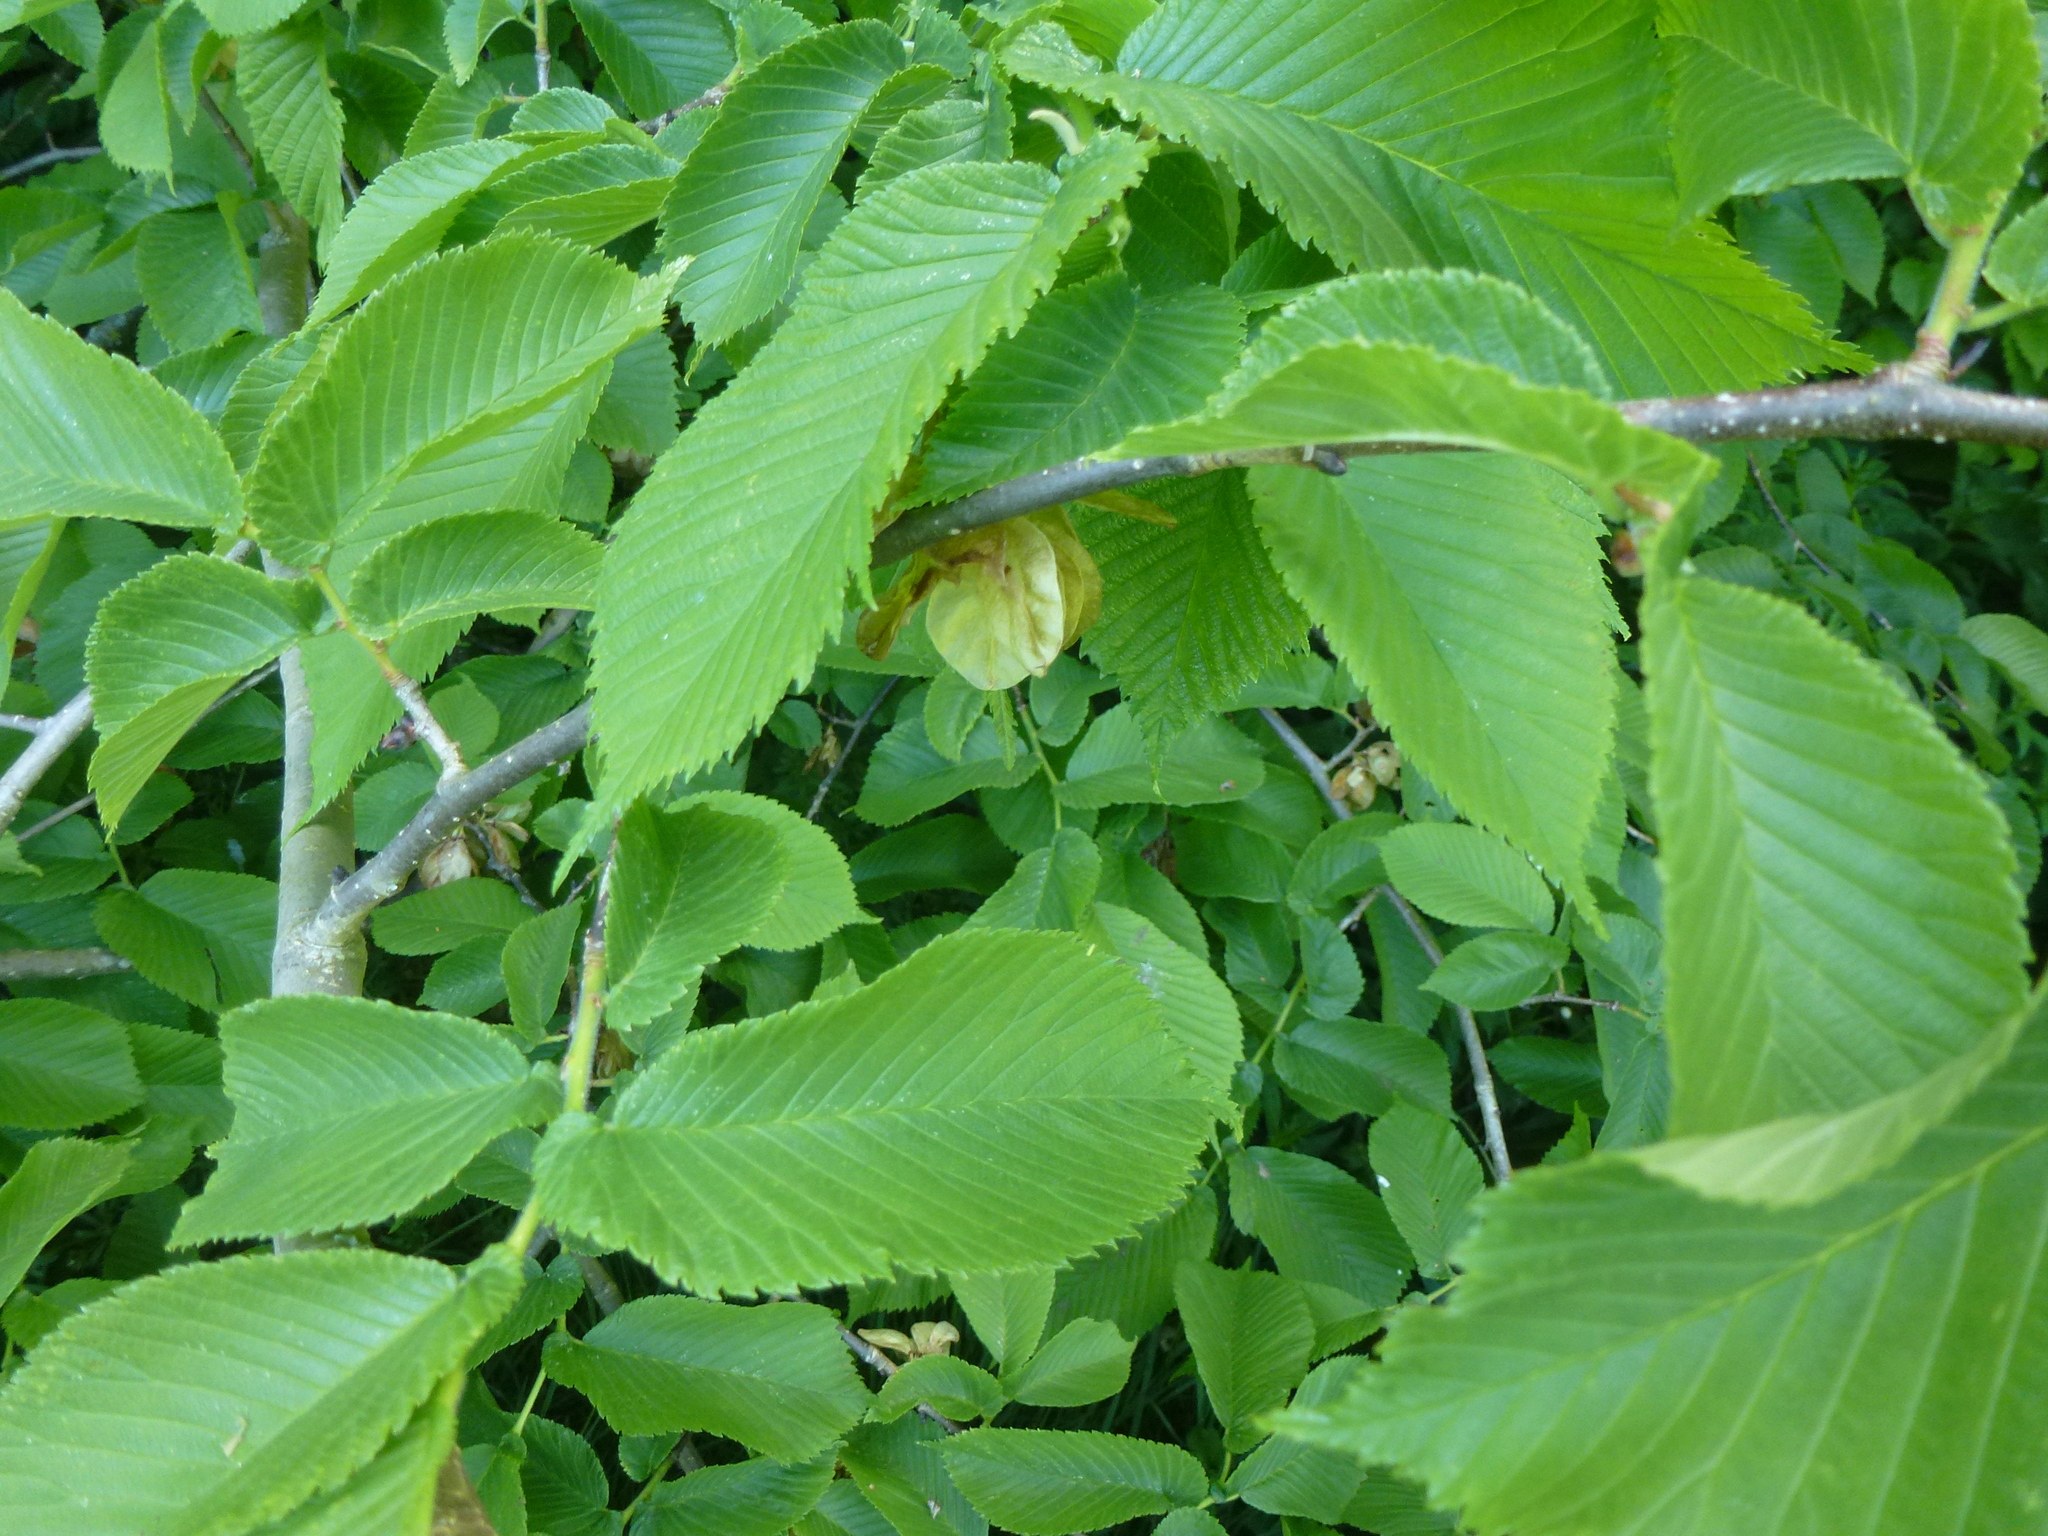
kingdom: Plantae
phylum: Tracheophyta
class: Magnoliopsida
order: Rosales
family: Ulmaceae
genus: Ulmus
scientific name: Ulmus glabra
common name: Wych elm
